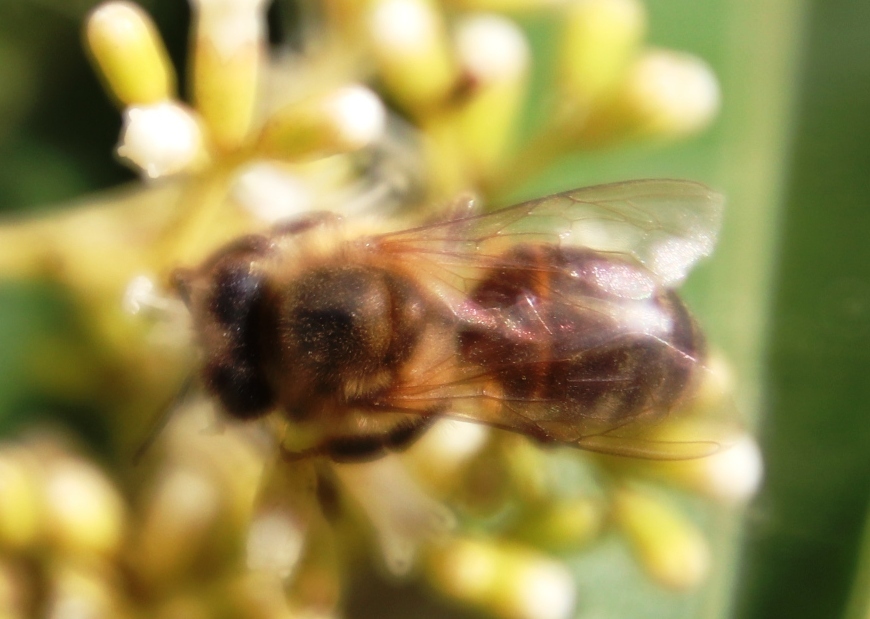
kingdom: Animalia
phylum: Arthropoda
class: Insecta
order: Hymenoptera
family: Apidae
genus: Apis
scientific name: Apis mellifera
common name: Honey bee
